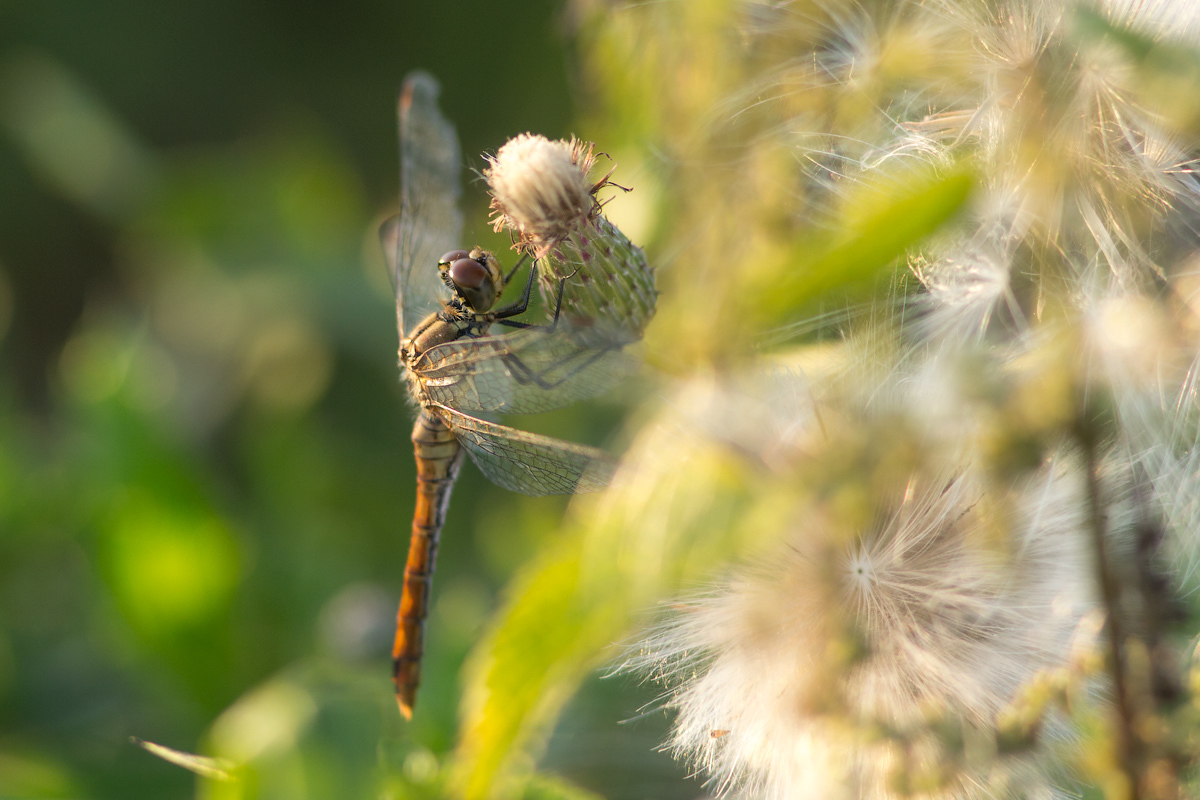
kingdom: Animalia
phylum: Arthropoda
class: Insecta
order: Odonata
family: Libellulidae
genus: Sympetrum
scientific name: Sympetrum sanguineum
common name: Ruddy darter
